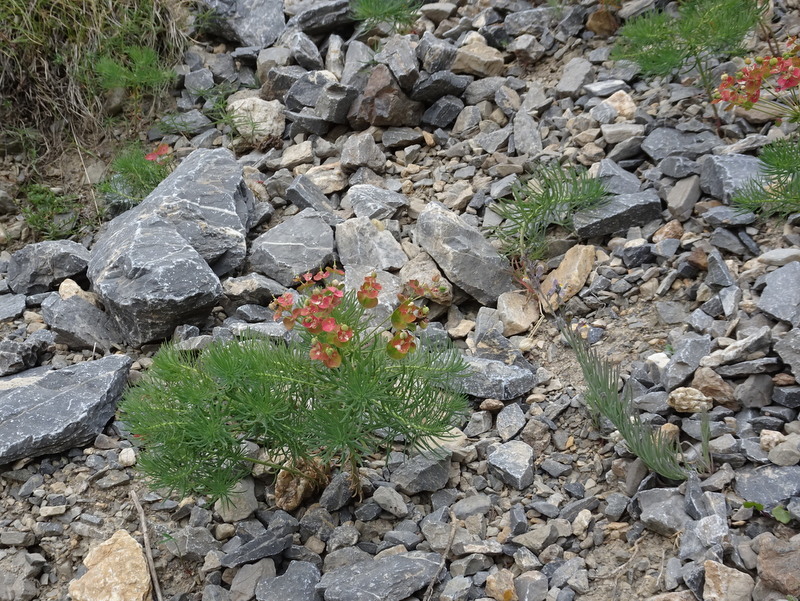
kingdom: Plantae
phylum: Tracheophyta
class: Magnoliopsida
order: Malpighiales
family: Euphorbiaceae
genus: Euphorbia
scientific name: Euphorbia cyparissias
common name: Cypress spurge
